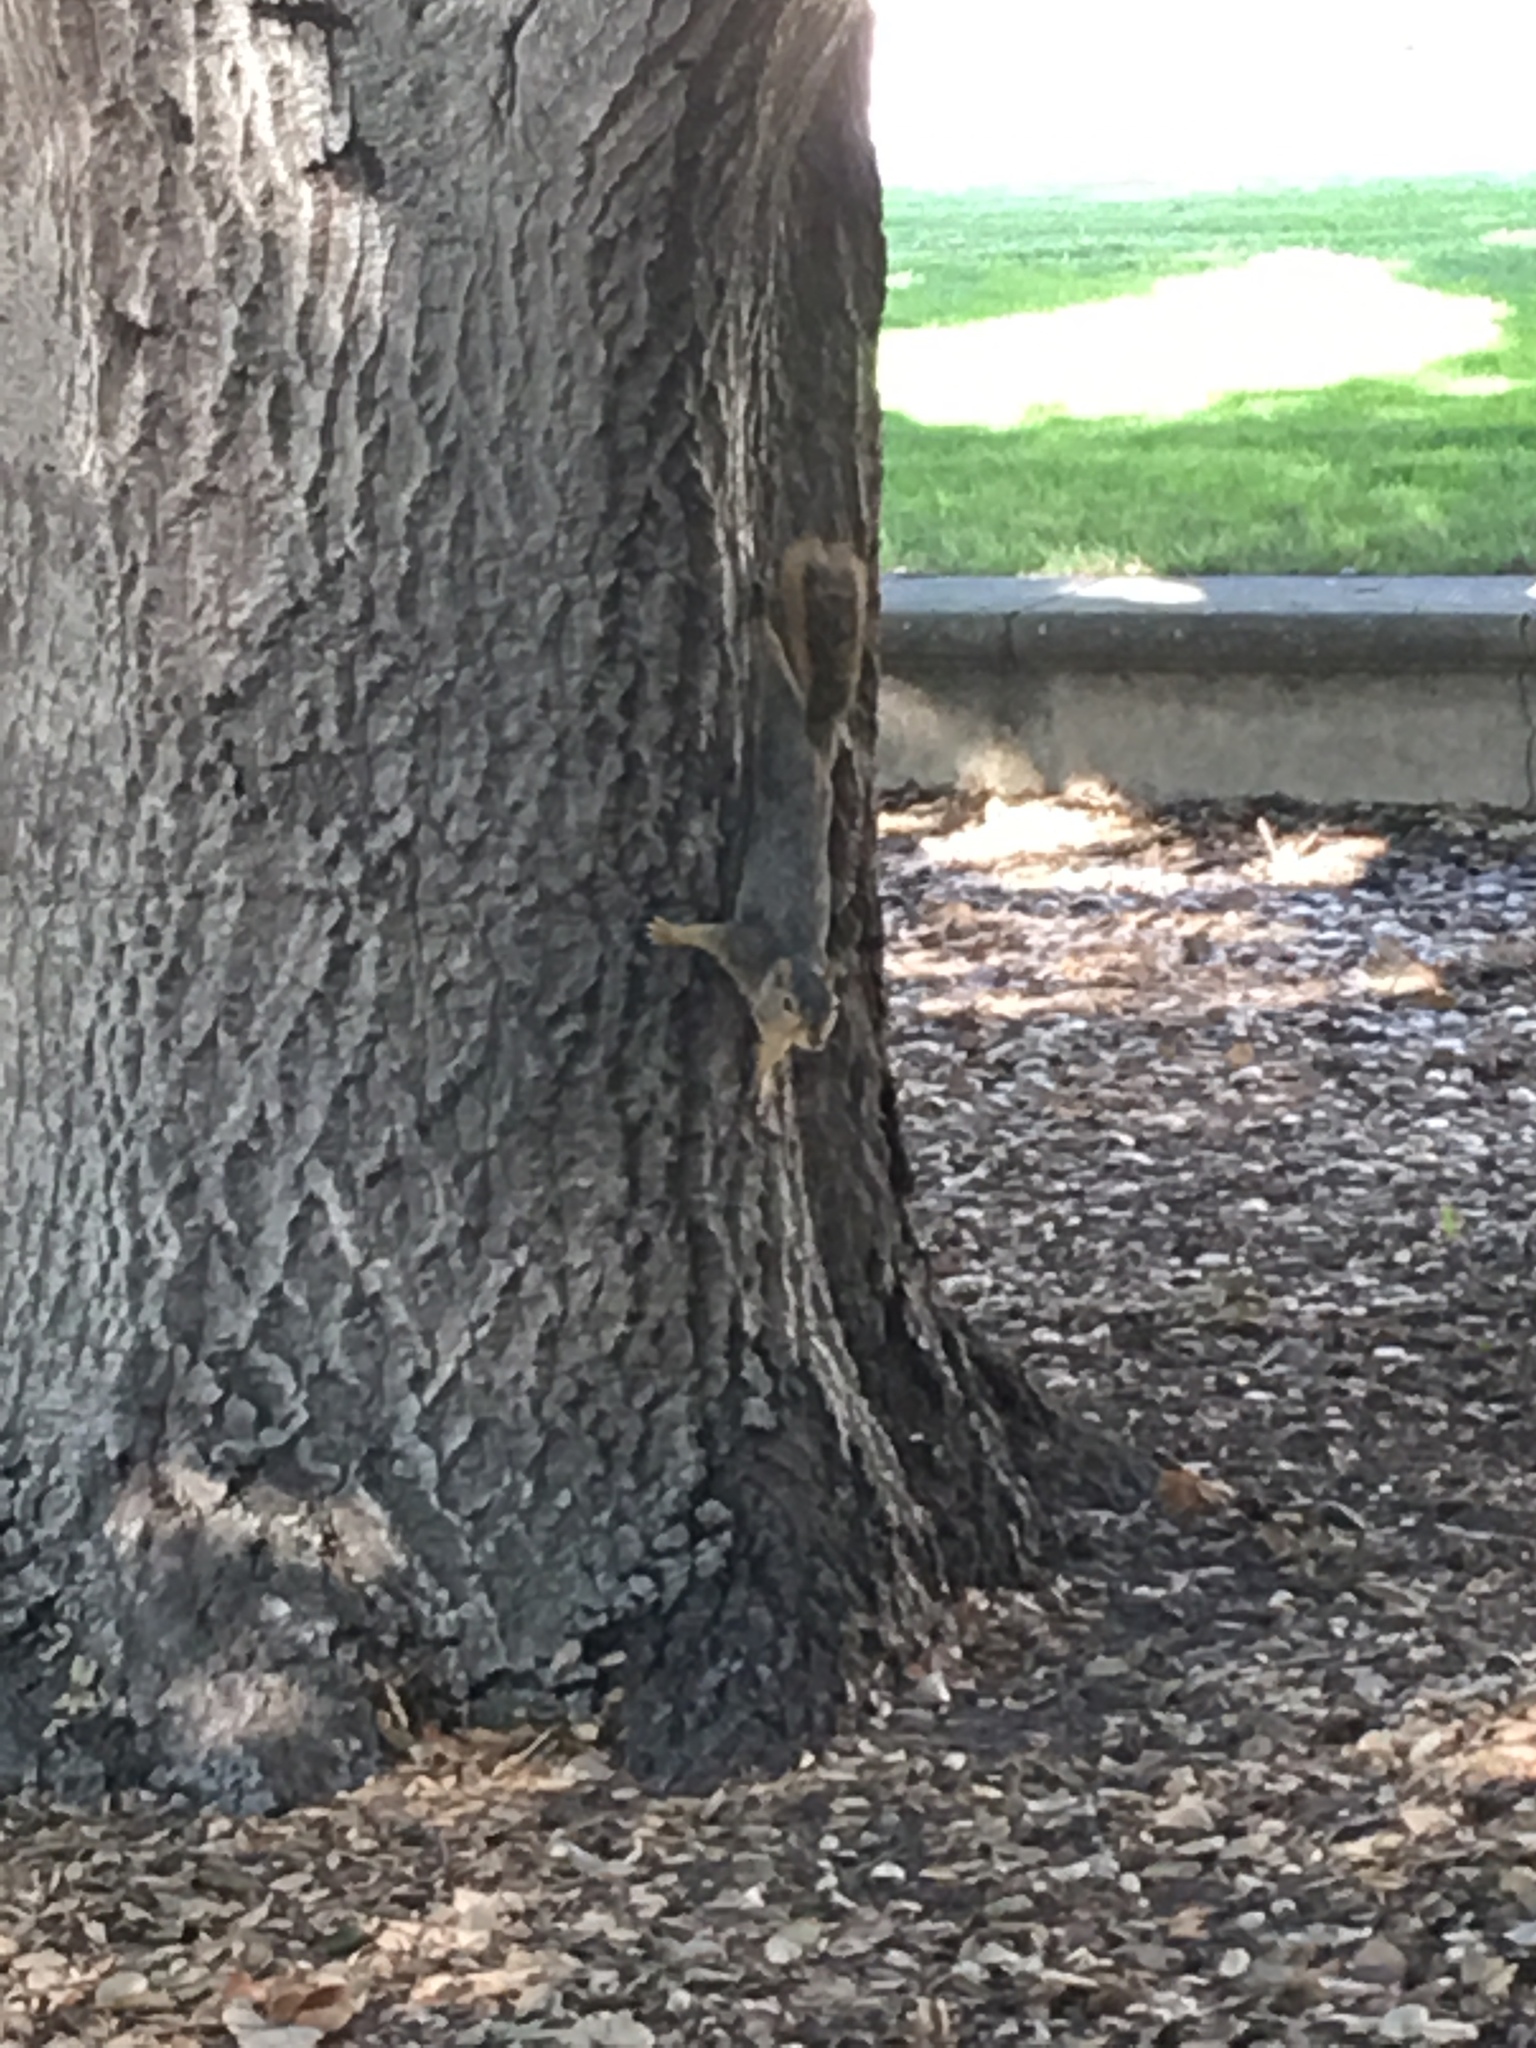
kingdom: Animalia
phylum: Chordata
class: Mammalia
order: Rodentia
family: Sciuridae
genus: Sciurus
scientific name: Sciurus niger
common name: Fox squirrel
